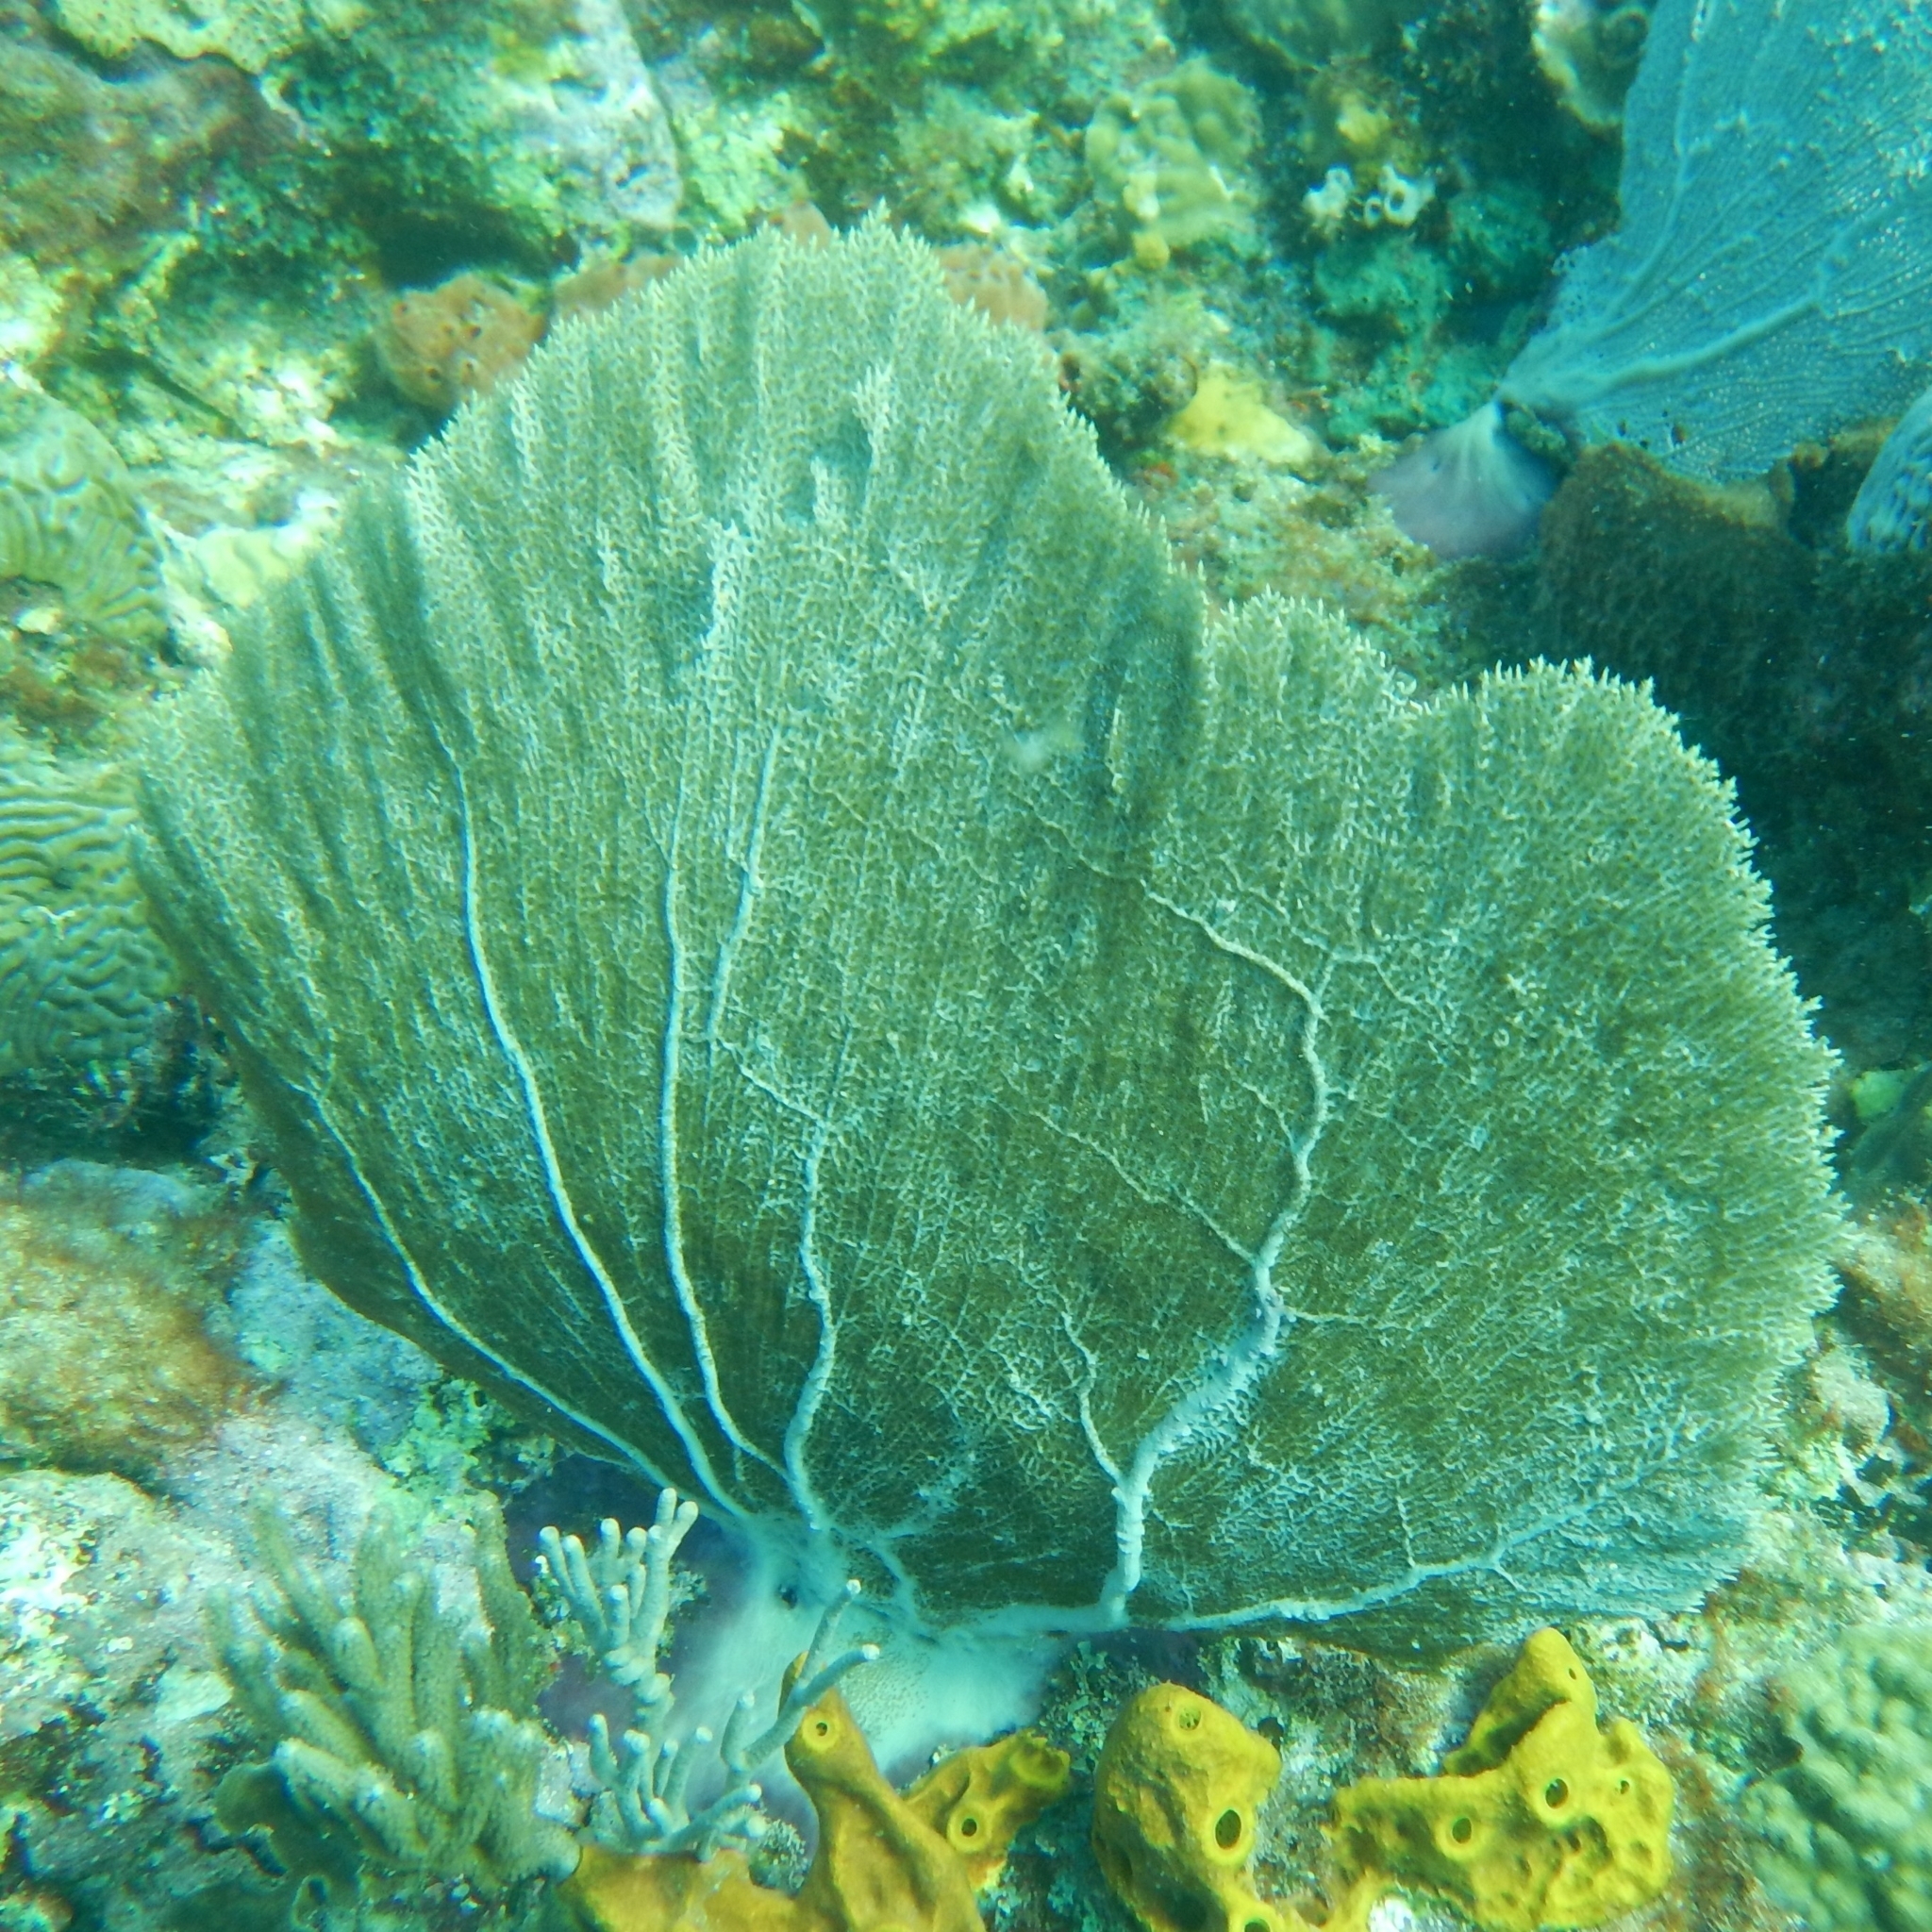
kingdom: Animalia
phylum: Cnidaria
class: Anthozoa
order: Malacalcyonacea
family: Gorgoniidae
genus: Gorgonia
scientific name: Gorgonia ventalina
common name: Common sea fan
